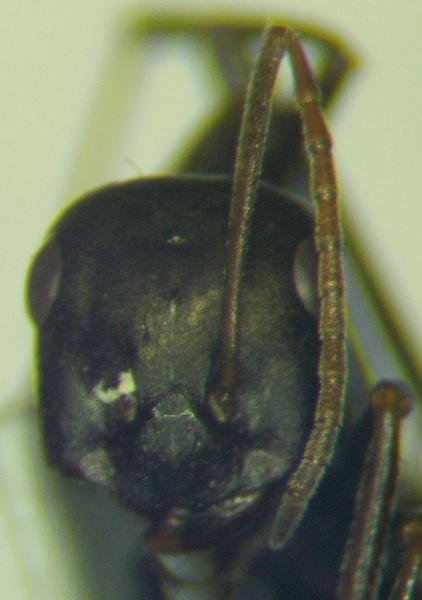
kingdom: Animalia
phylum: Arthropoda
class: Insecta
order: Hymenoptera
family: Formicidae
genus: Cataglyphis
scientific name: Cataglyphis aenescens
